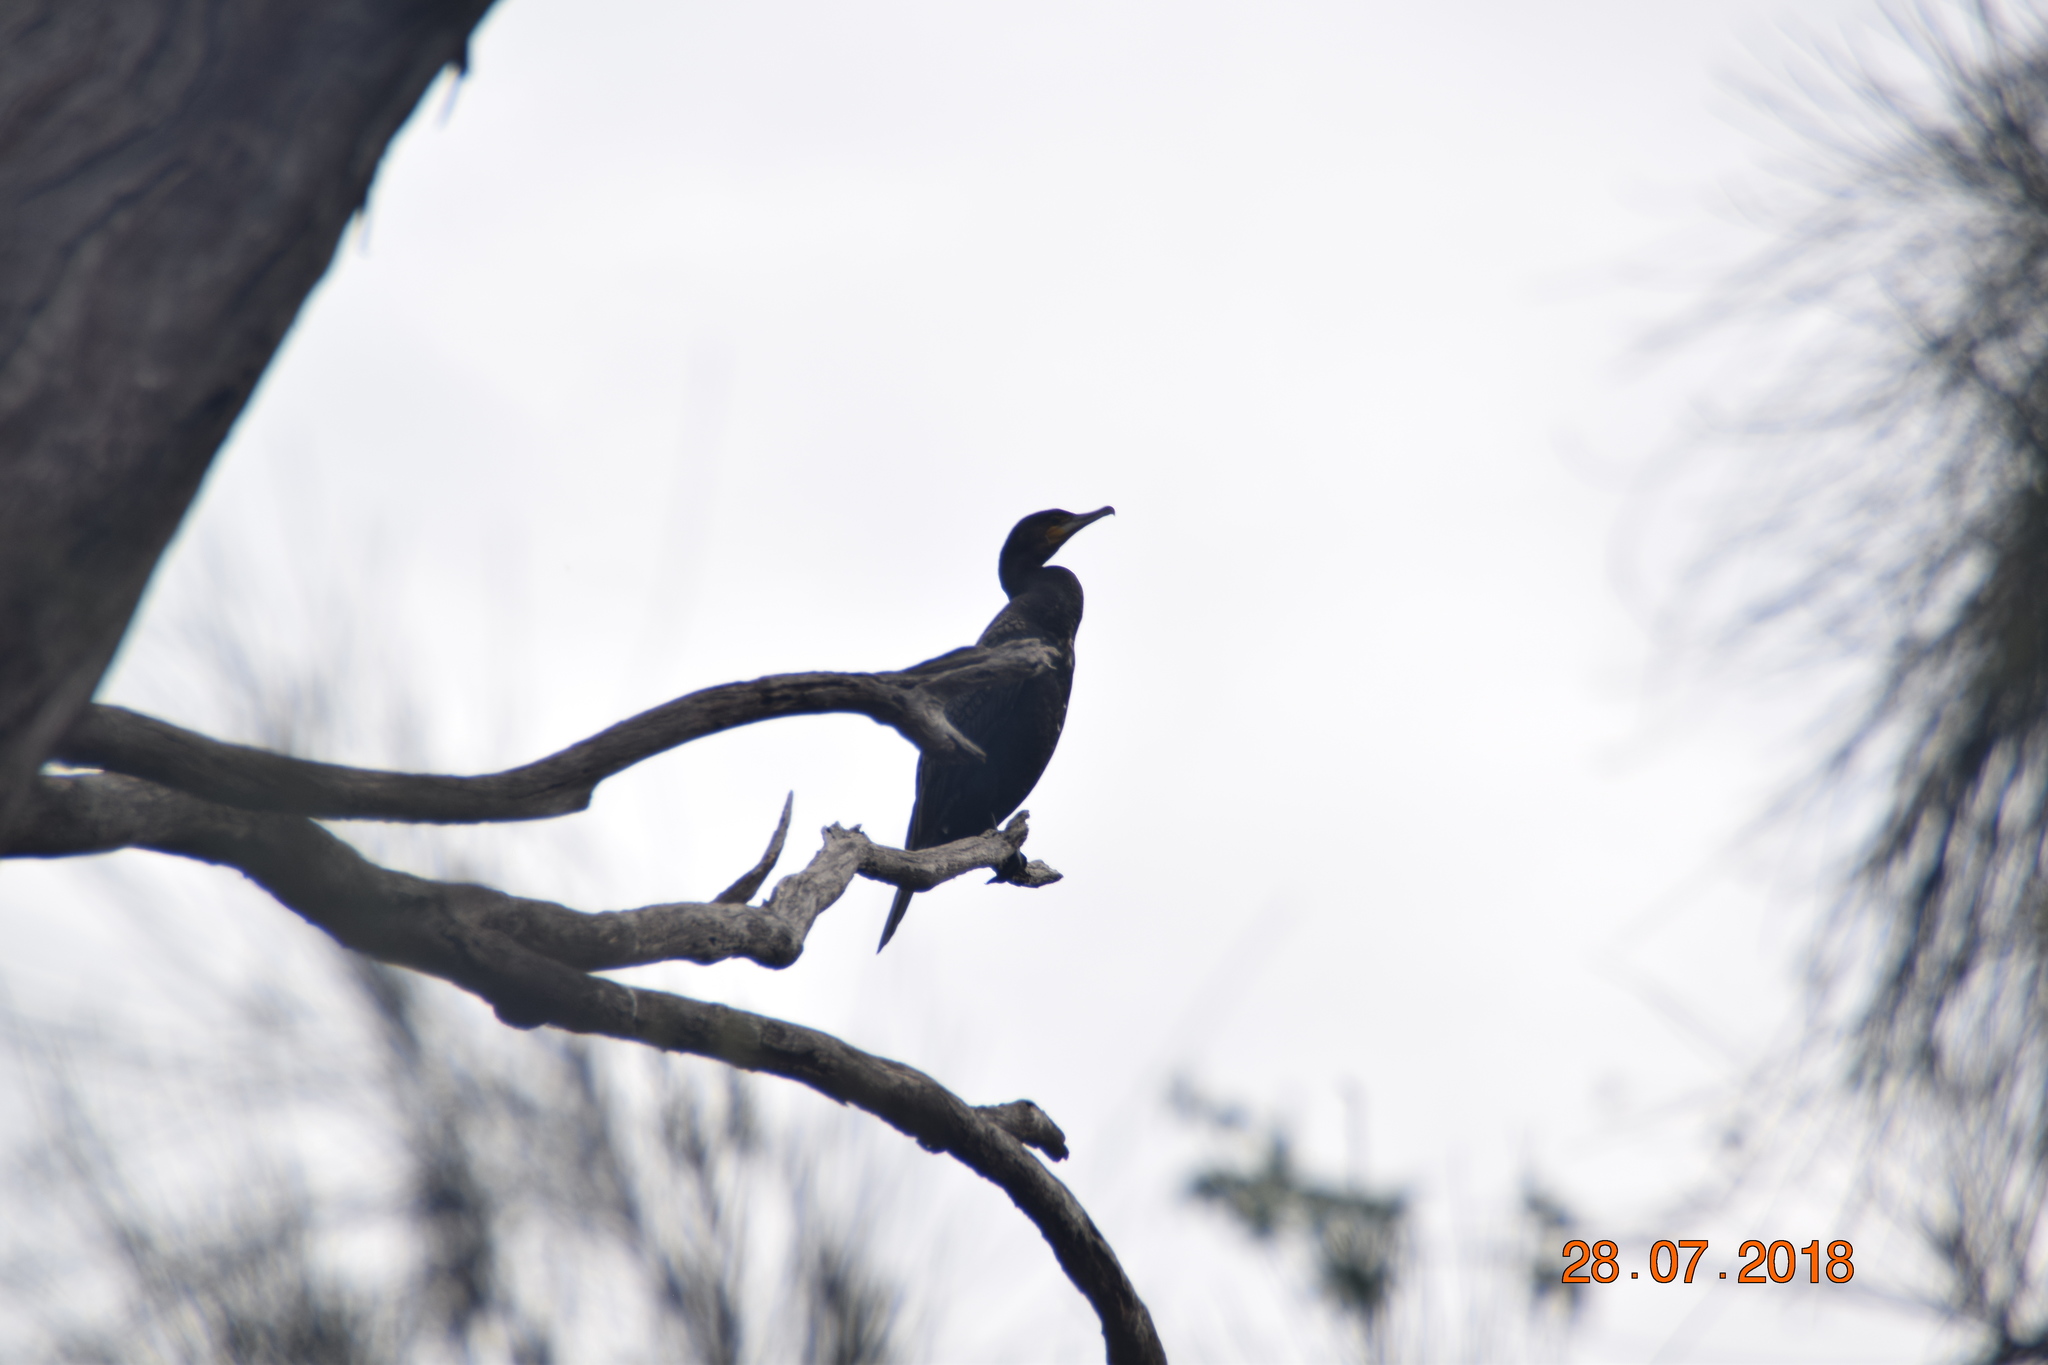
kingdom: Animalia
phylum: Chordata
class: Aves
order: Suliformes
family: Phalacrocoracidae
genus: Phalacrocorax
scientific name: Phalacrocorax carbo
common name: Great cormorant
